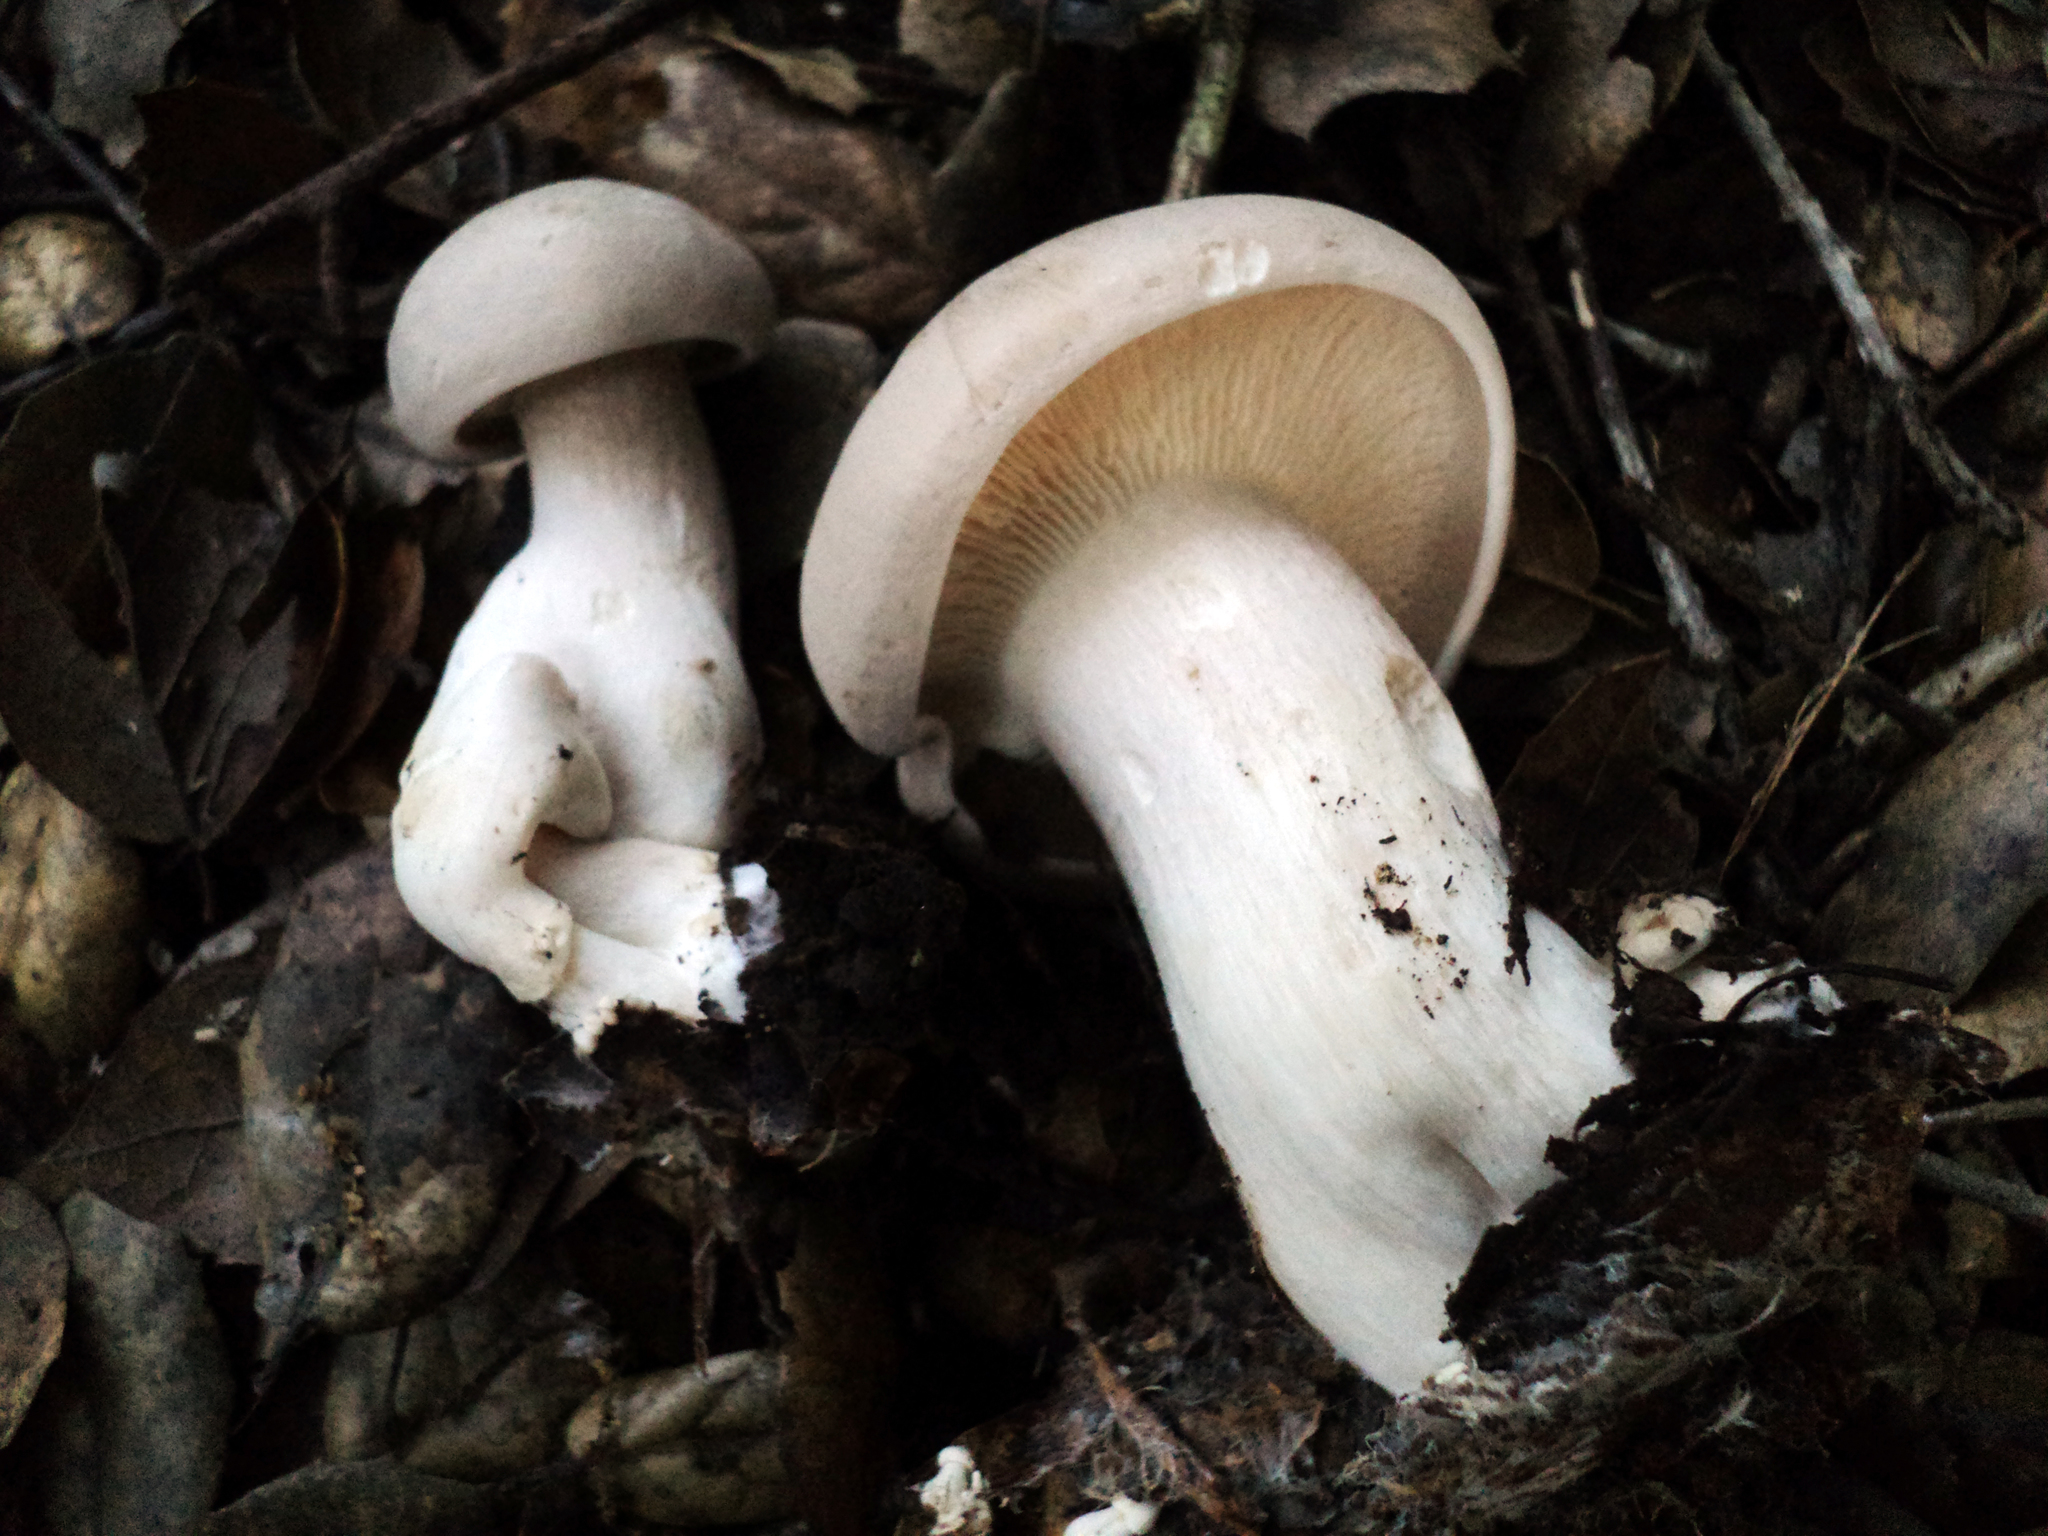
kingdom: Fungi
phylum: Basidiomycota
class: Agaricomycetes
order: Agaricales
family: Tricholomataceae
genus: Clitocybe
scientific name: Clitocybe nebularis
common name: Clouded agaric
